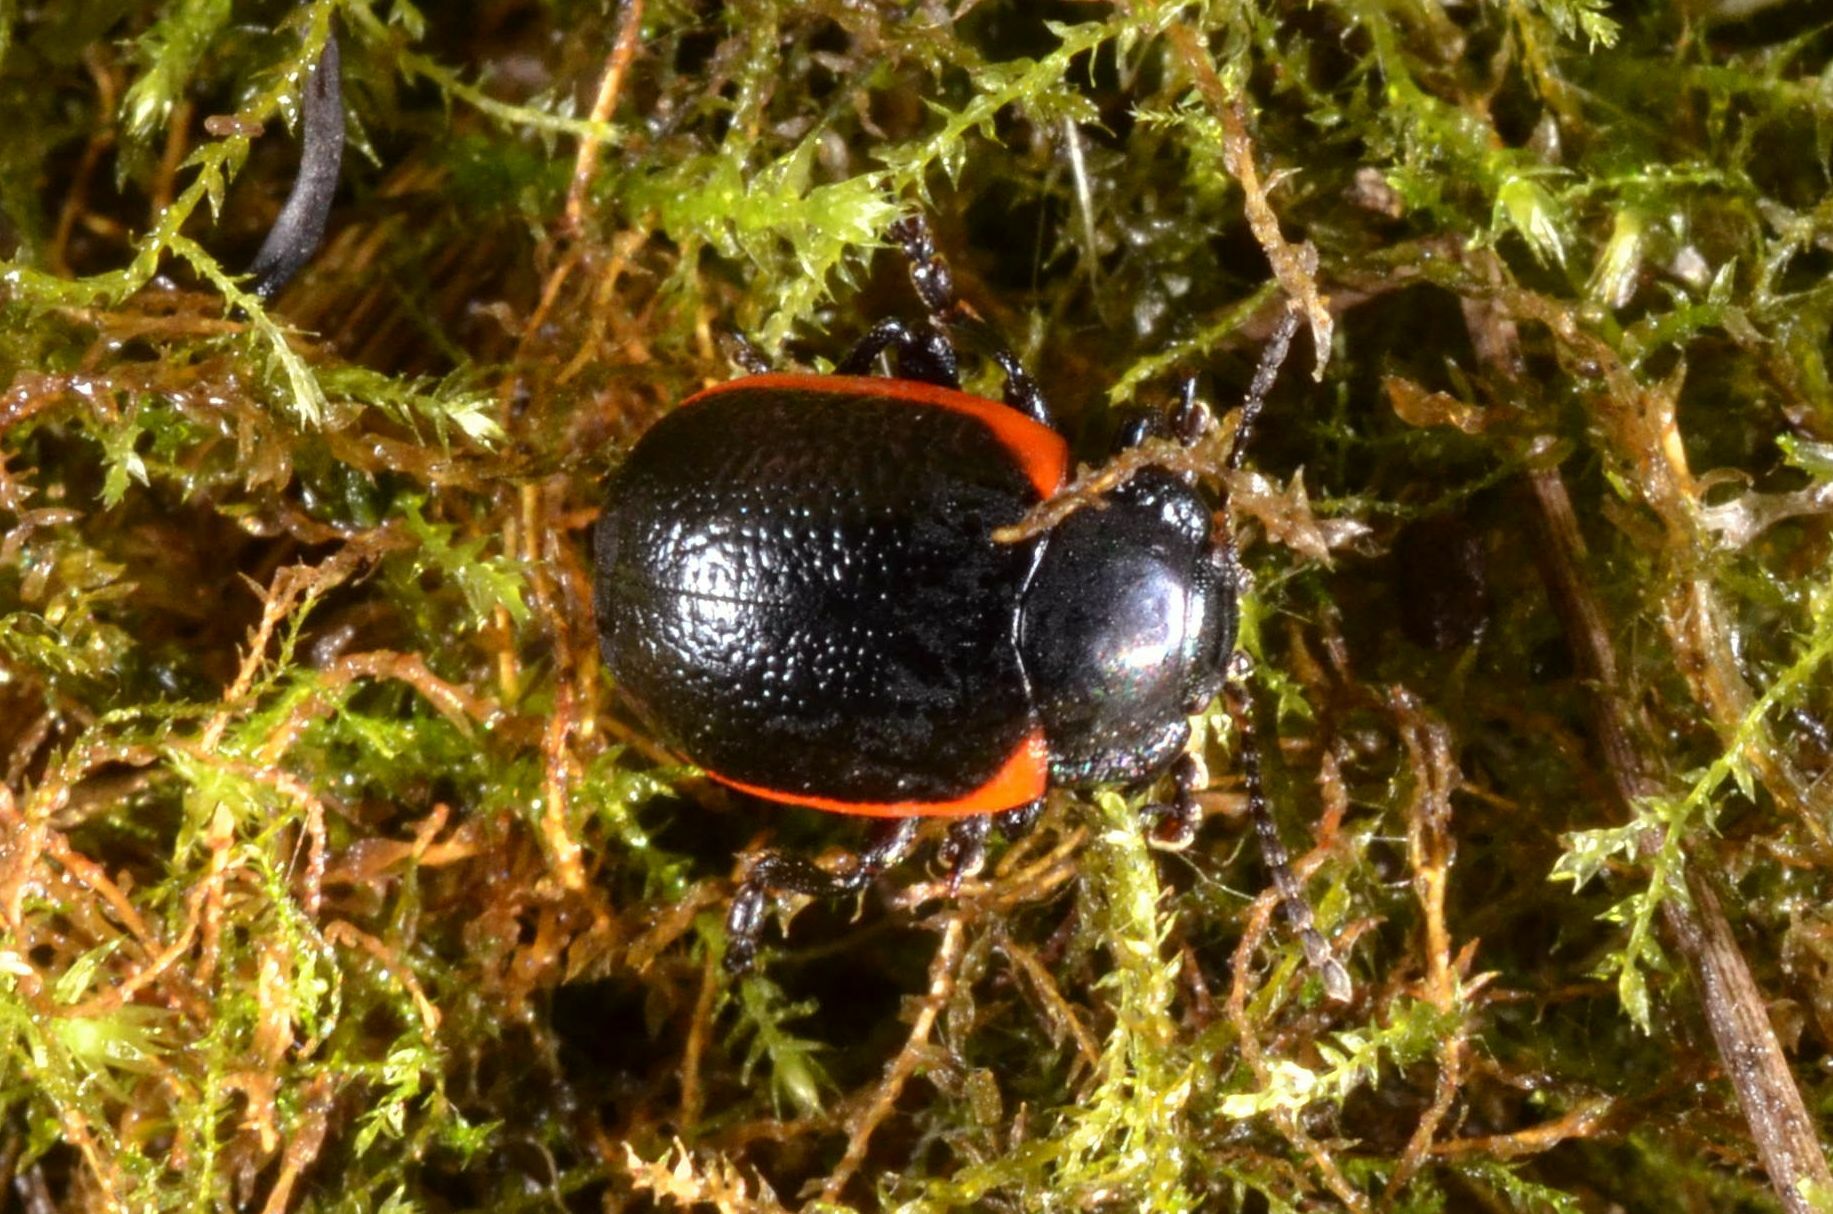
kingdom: Animalia
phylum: Arthropoda
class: Insecta
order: Coleoptera
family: Chrysomelidae
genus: Chrysolina
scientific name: Chrysolina sanguinolenta
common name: Toadflax leaf beetle
